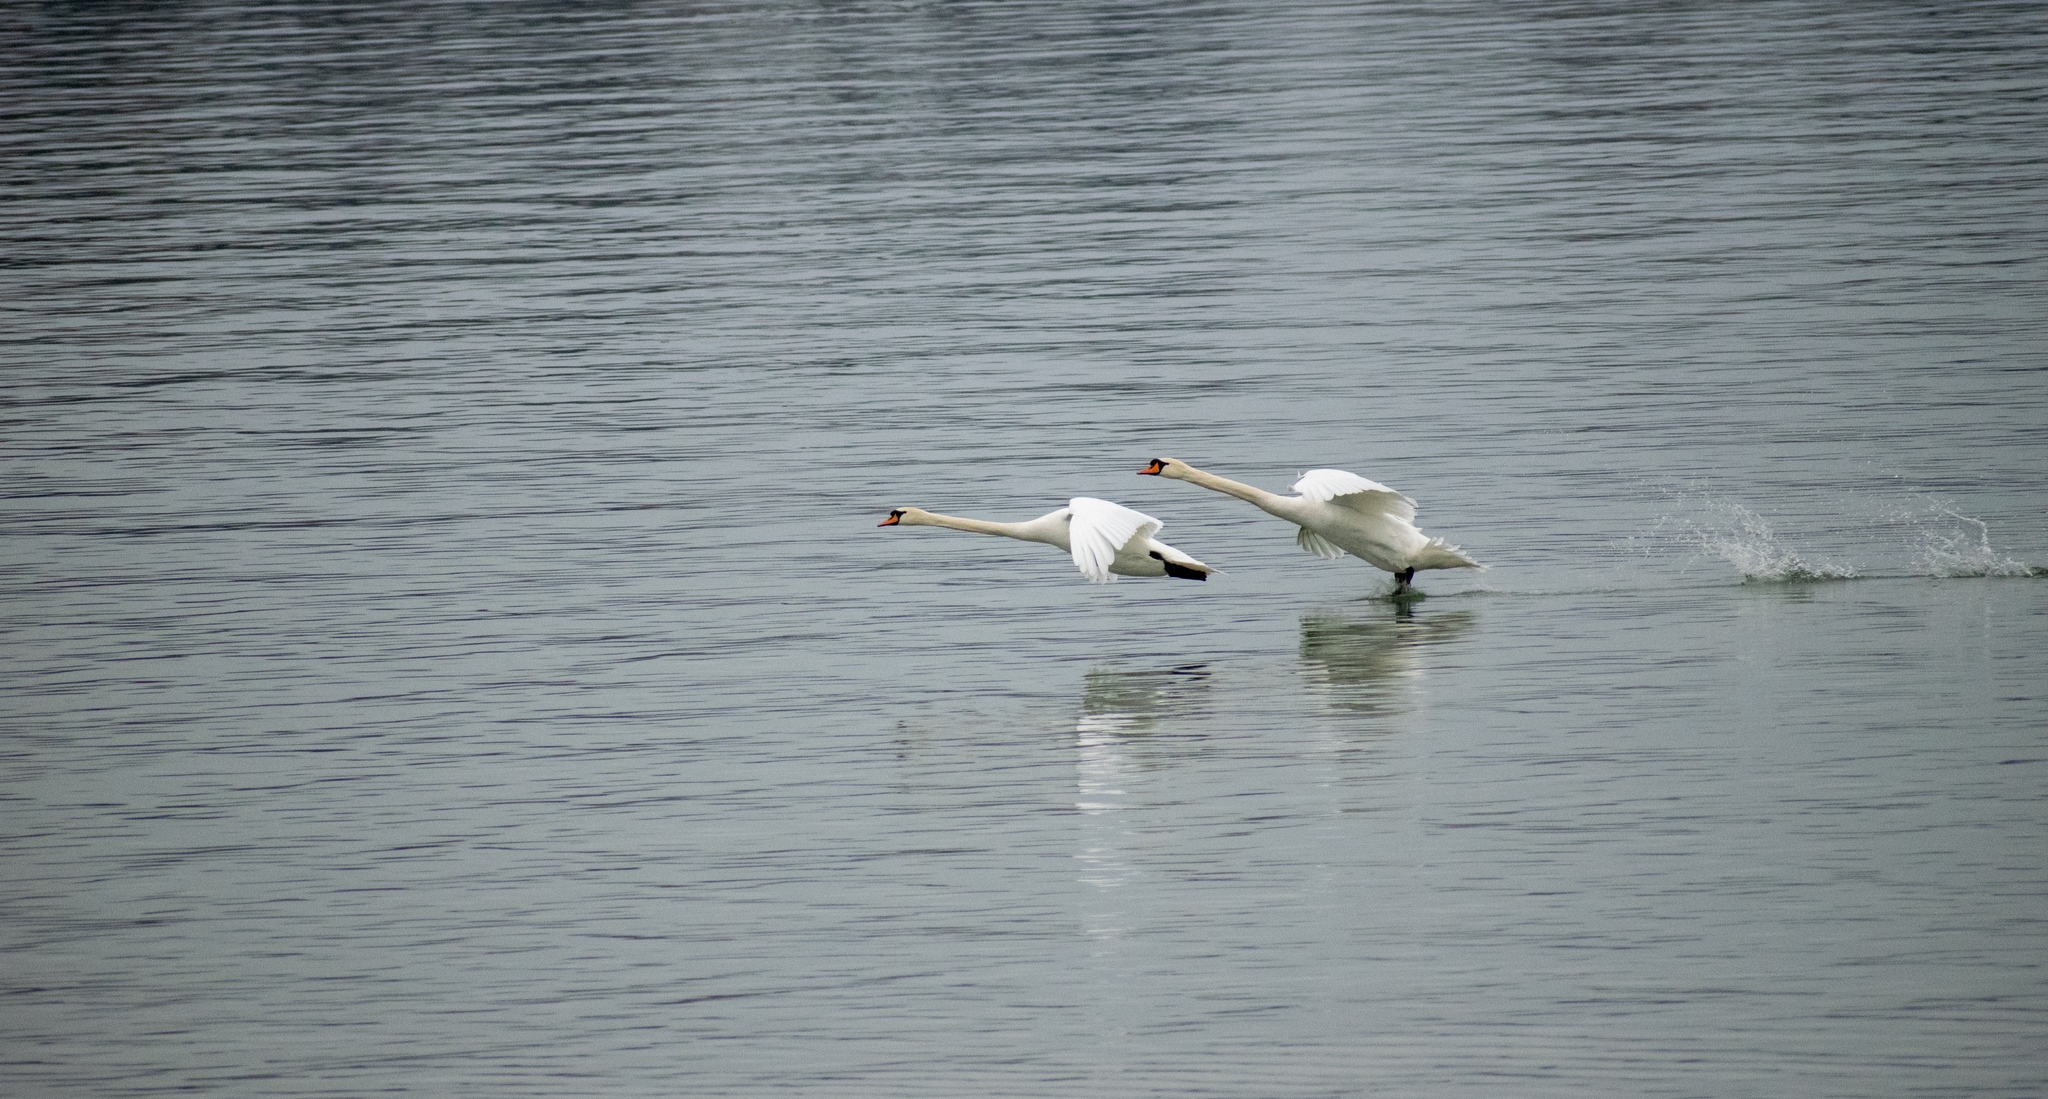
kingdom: Animalia
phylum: Chordata
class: Aves
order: Anseriformes
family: Anatidae
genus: Cygnus
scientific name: Cygnus olor
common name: Mute swan
